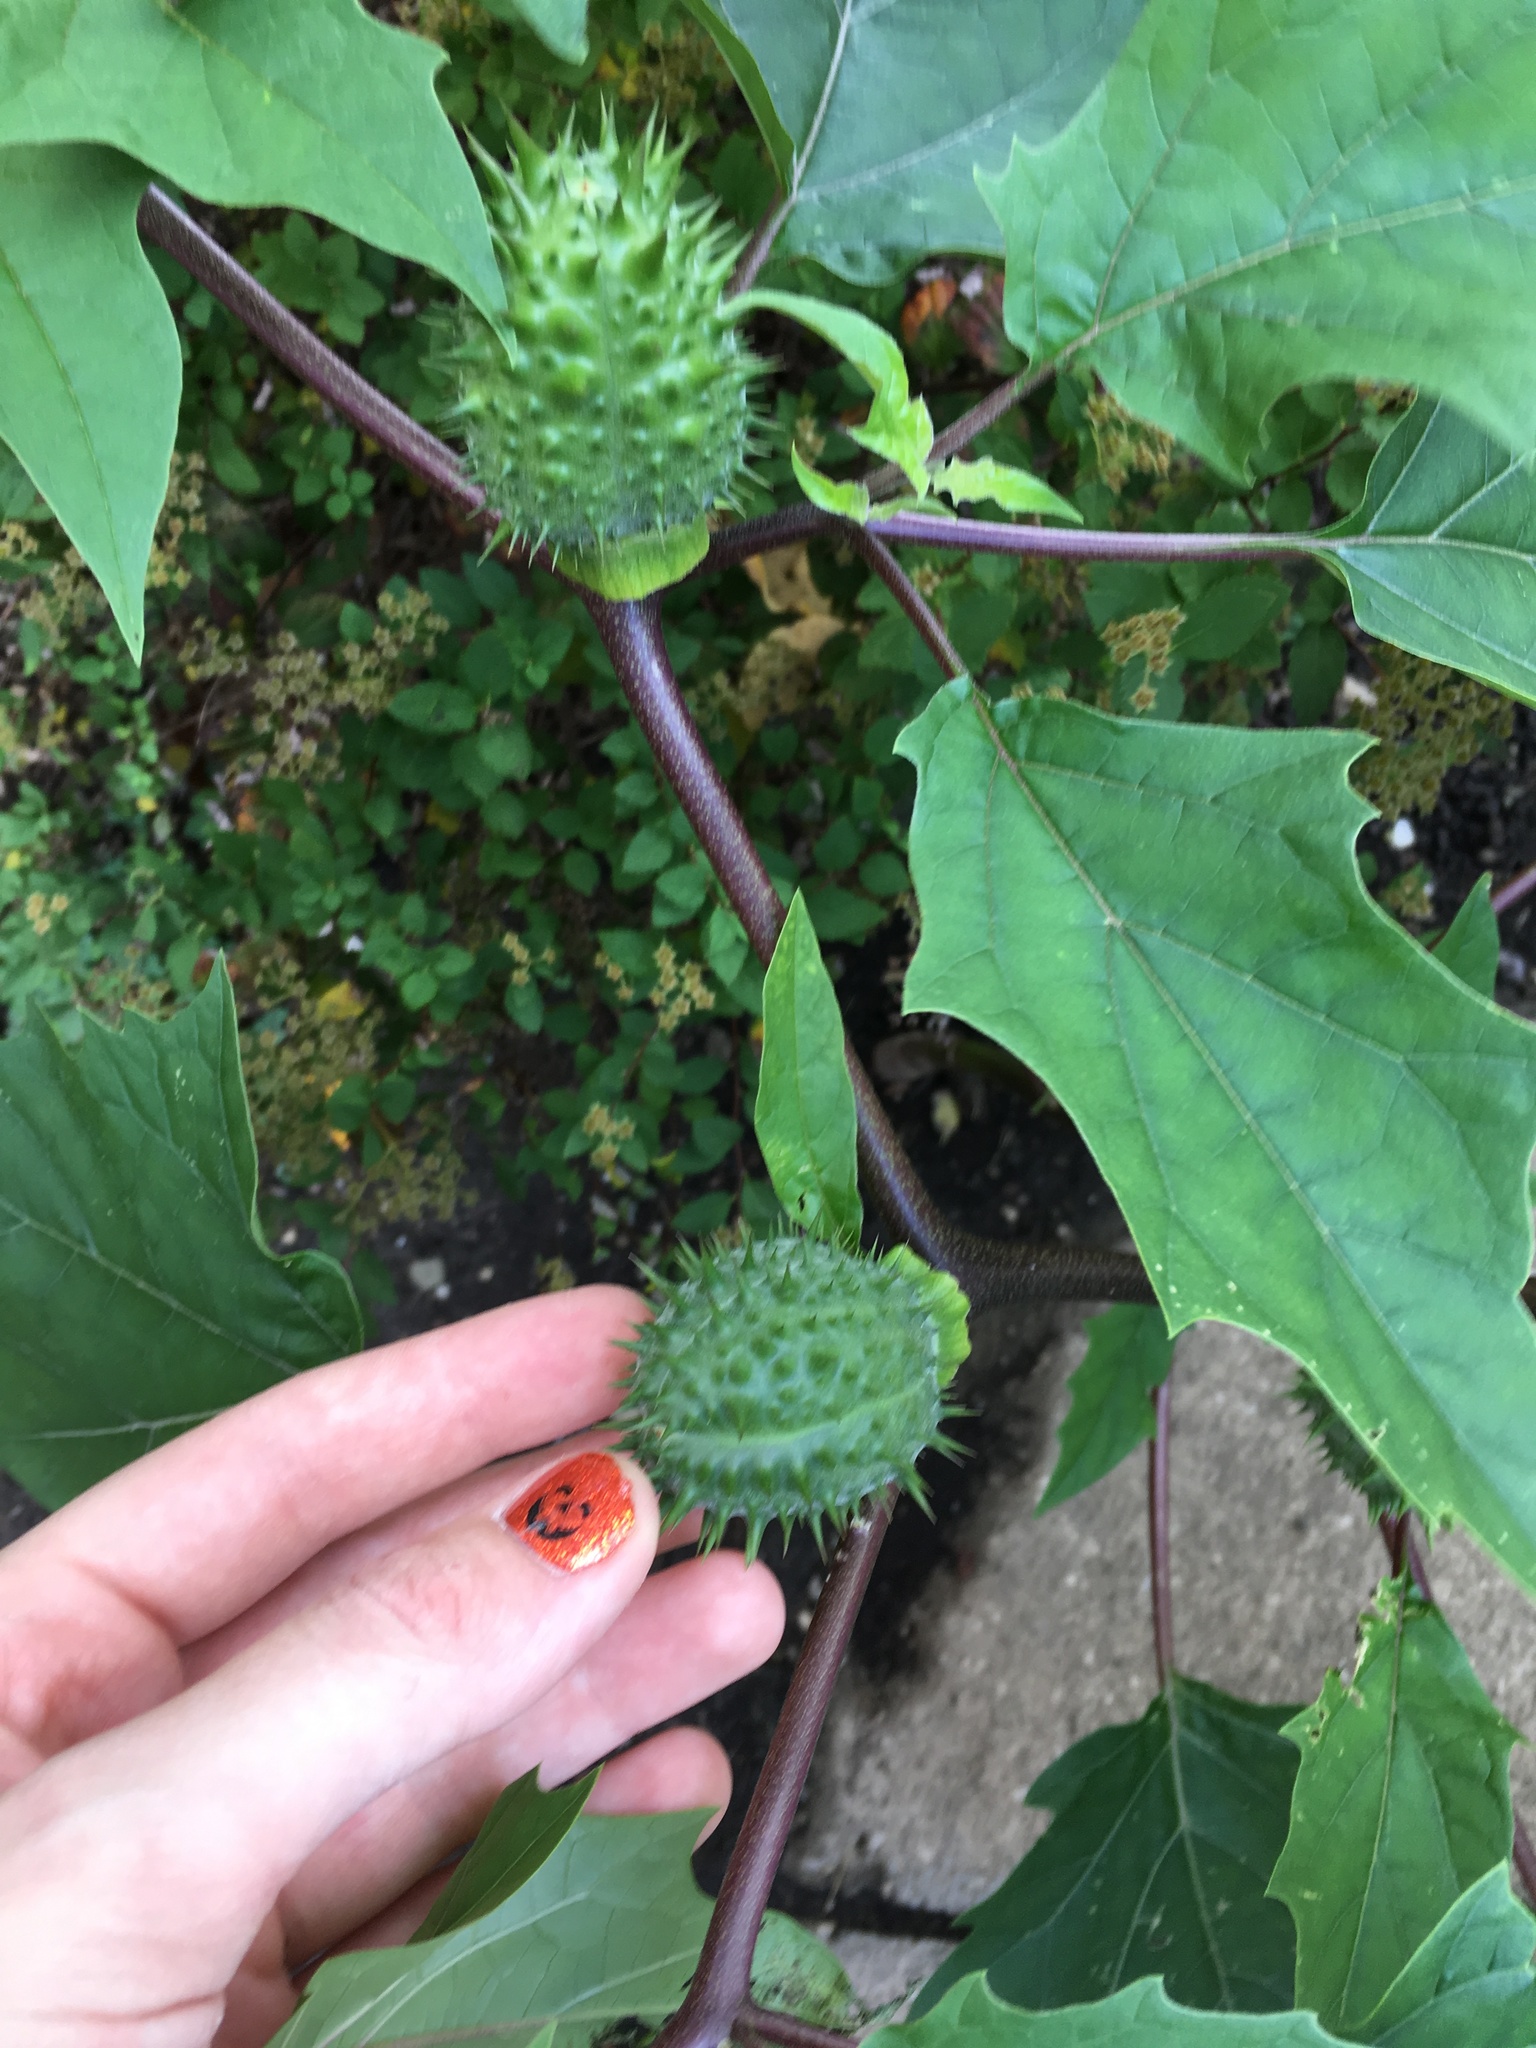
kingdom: Plantae
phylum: Tracheophyta
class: Magnoliopsida
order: Solanales
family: Solanaceae
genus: Datura
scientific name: Datura stramonium
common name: Thorn-apple
